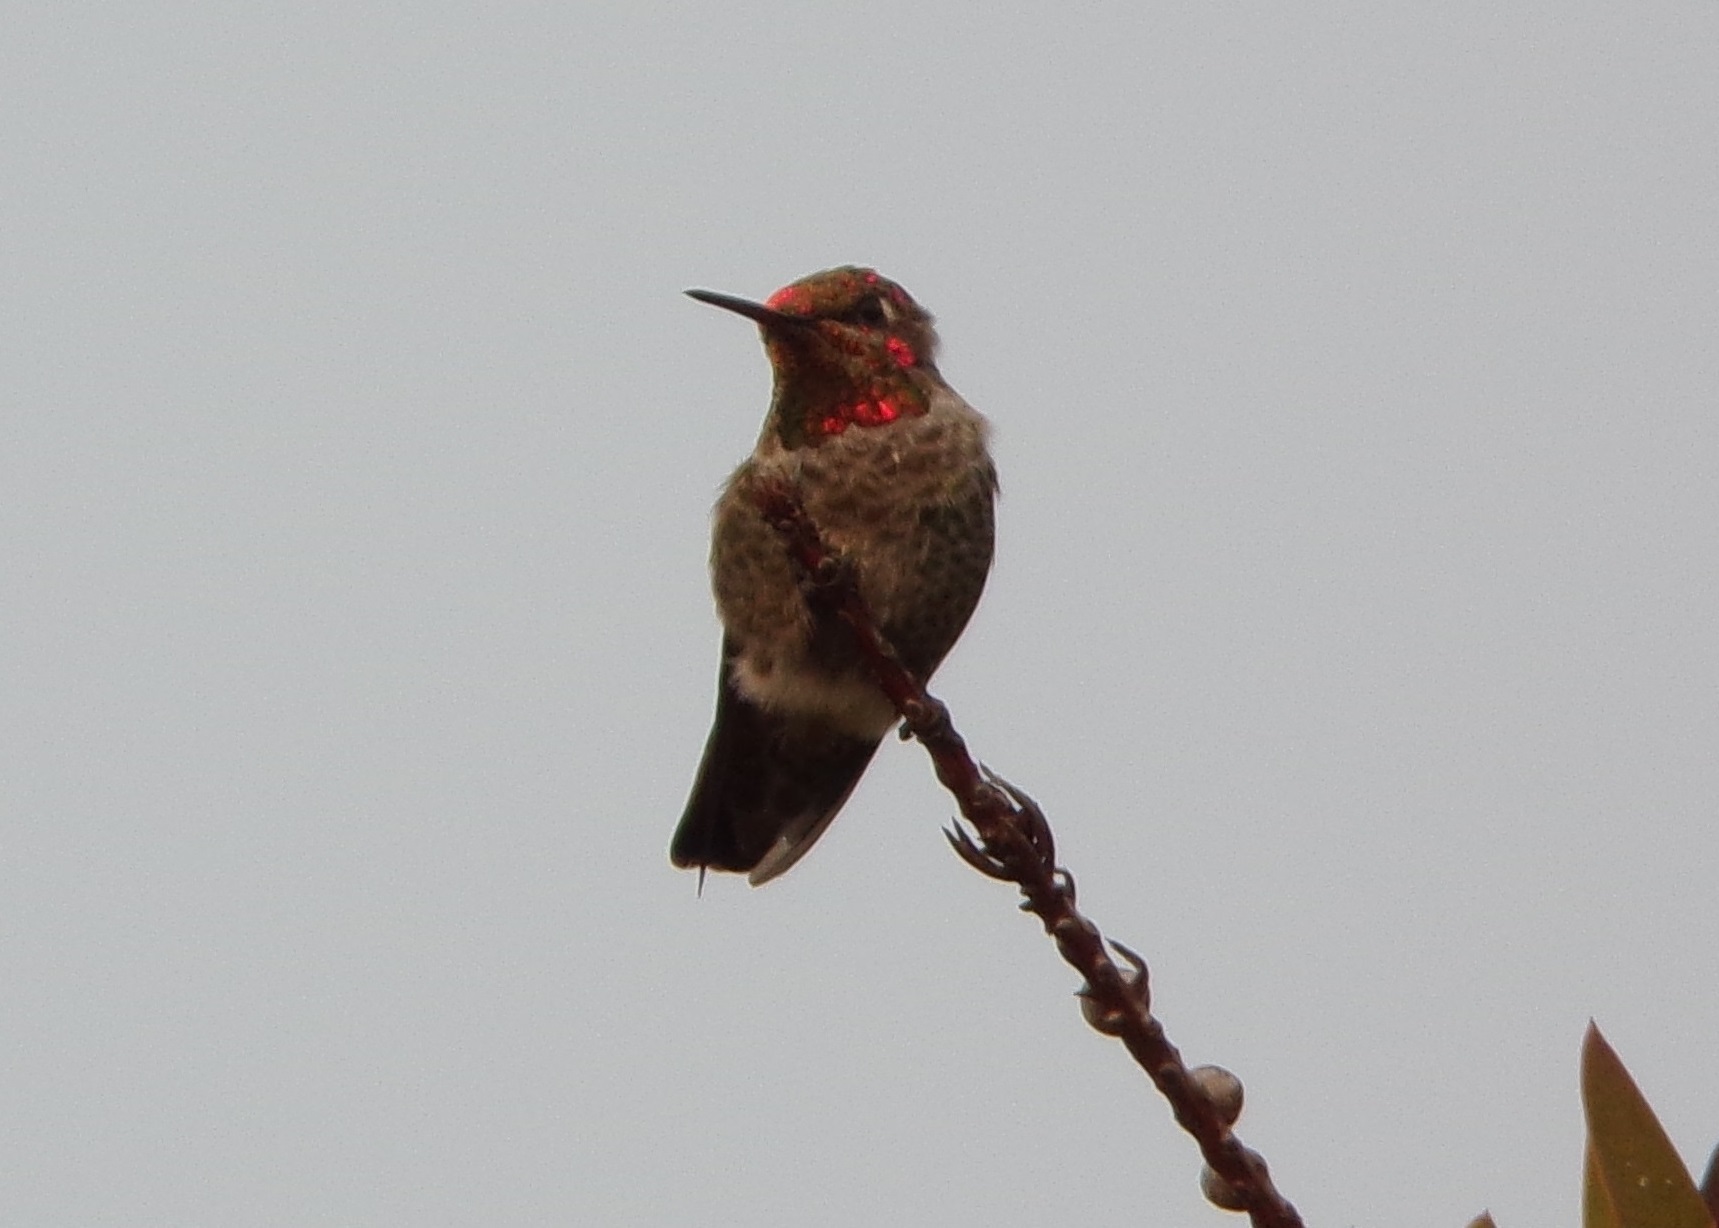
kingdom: Animalia
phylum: Chordata
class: Aves
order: Apodiformes
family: Trochilidae
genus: Calypte
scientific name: Calypte anna
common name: Anna's hummingbird
